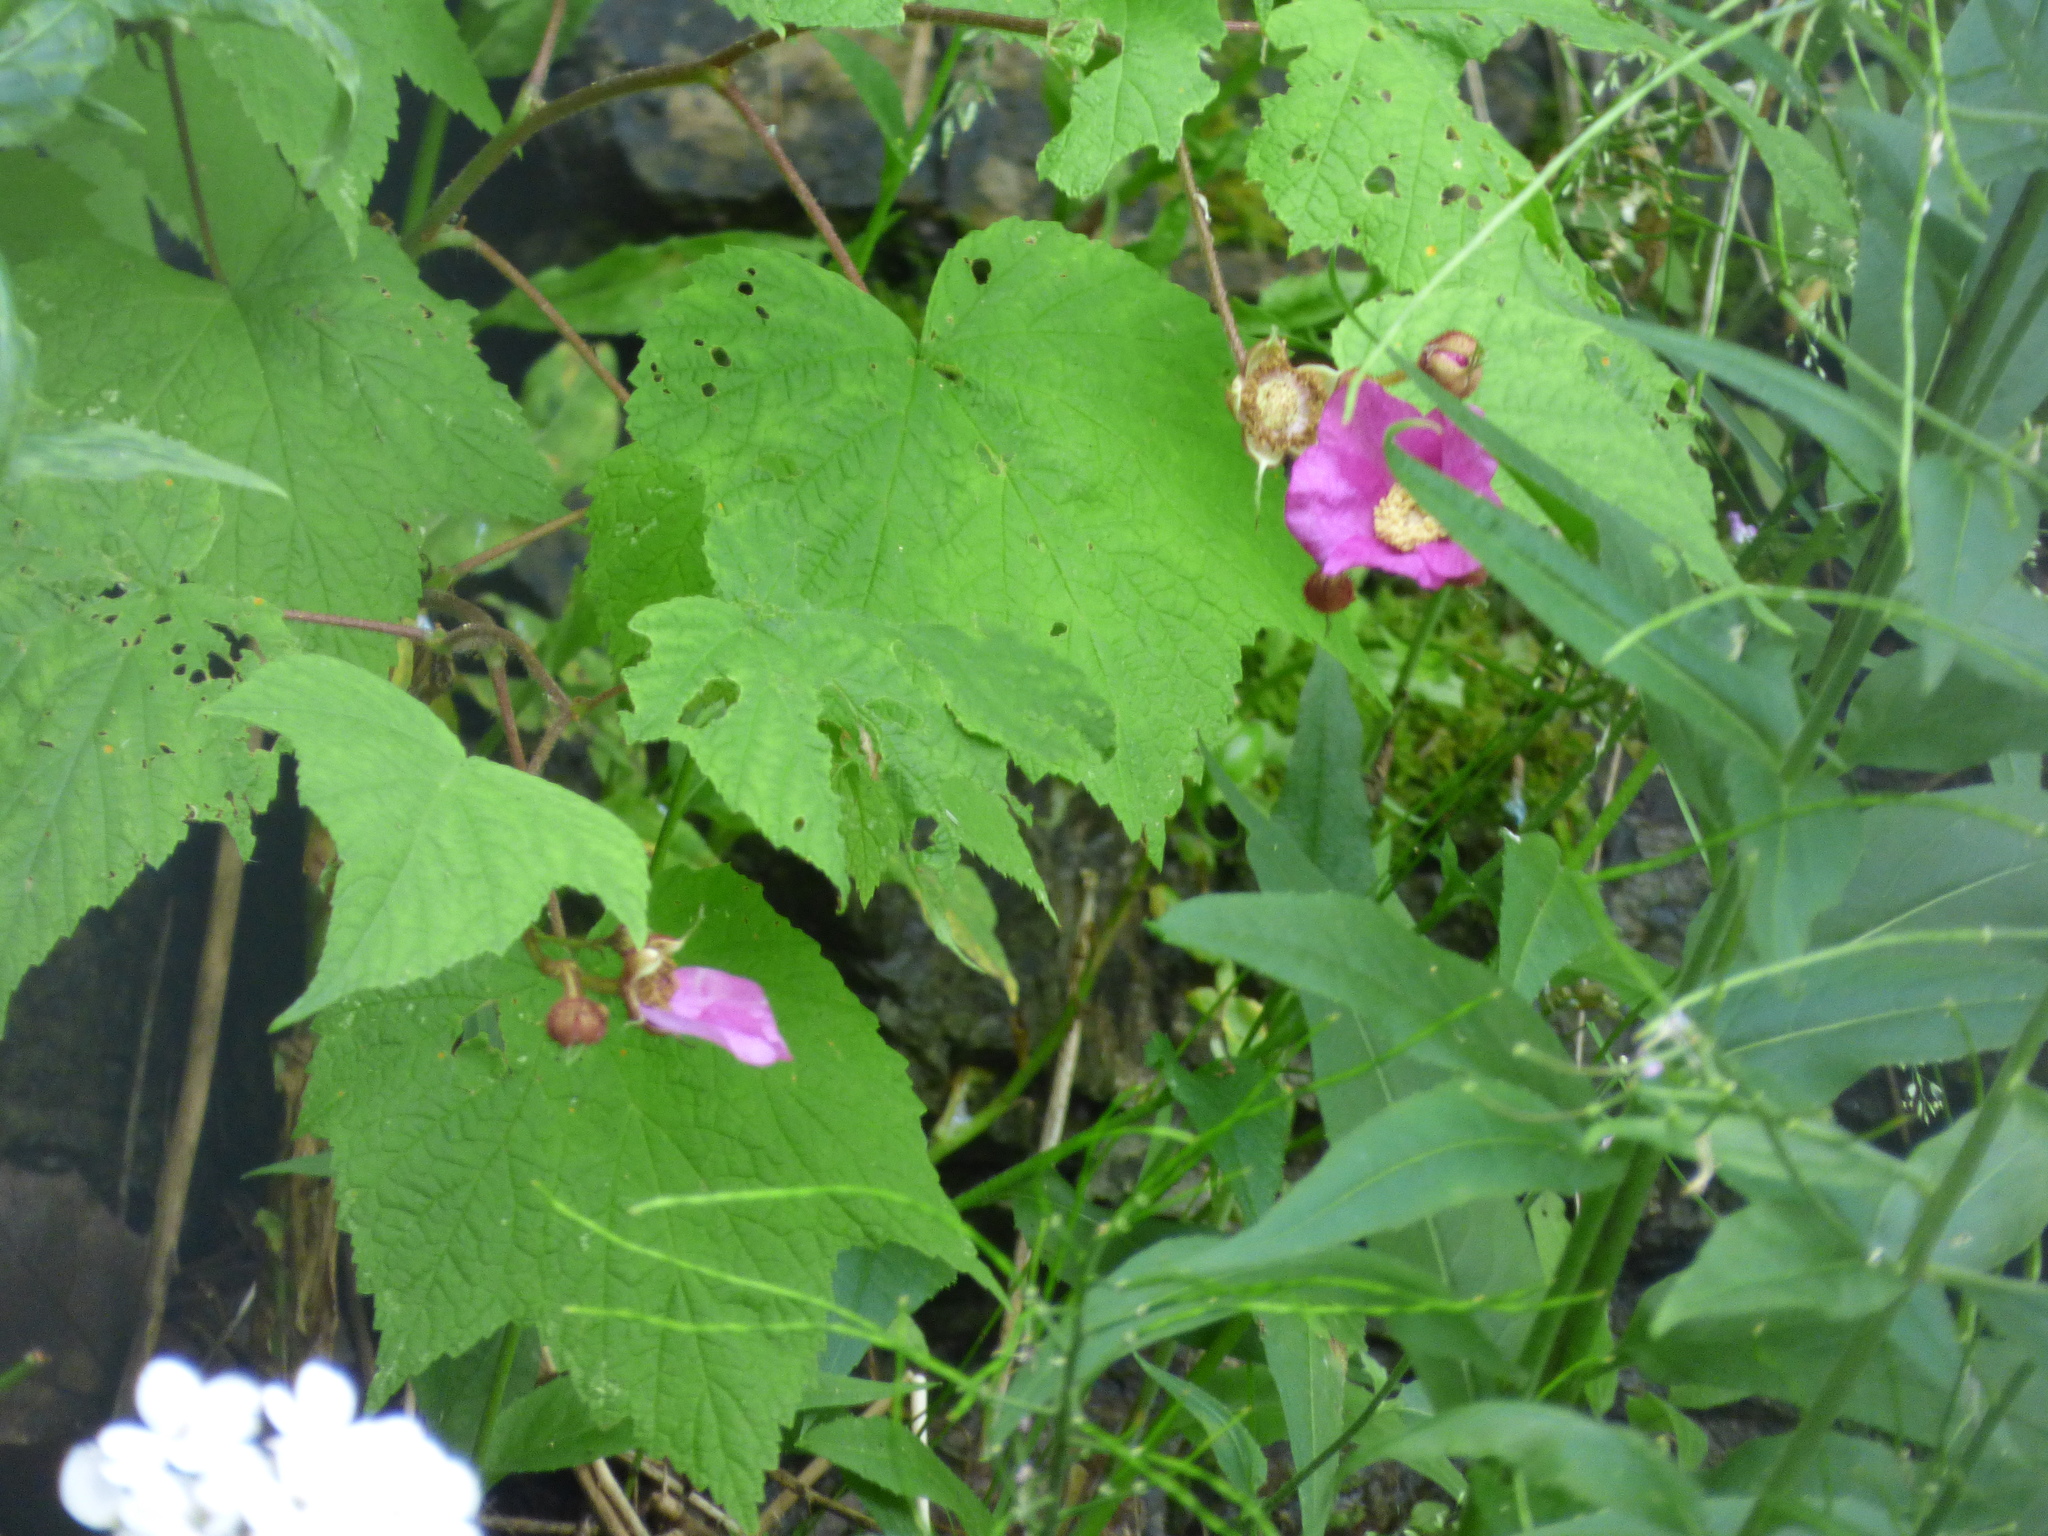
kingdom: Plantae
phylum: Tracheophyta
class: Magnoliopsida
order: Rosales
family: Rosaceae
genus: Rubus
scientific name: Rubus odoratus
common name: Purple-flowered raspberry
